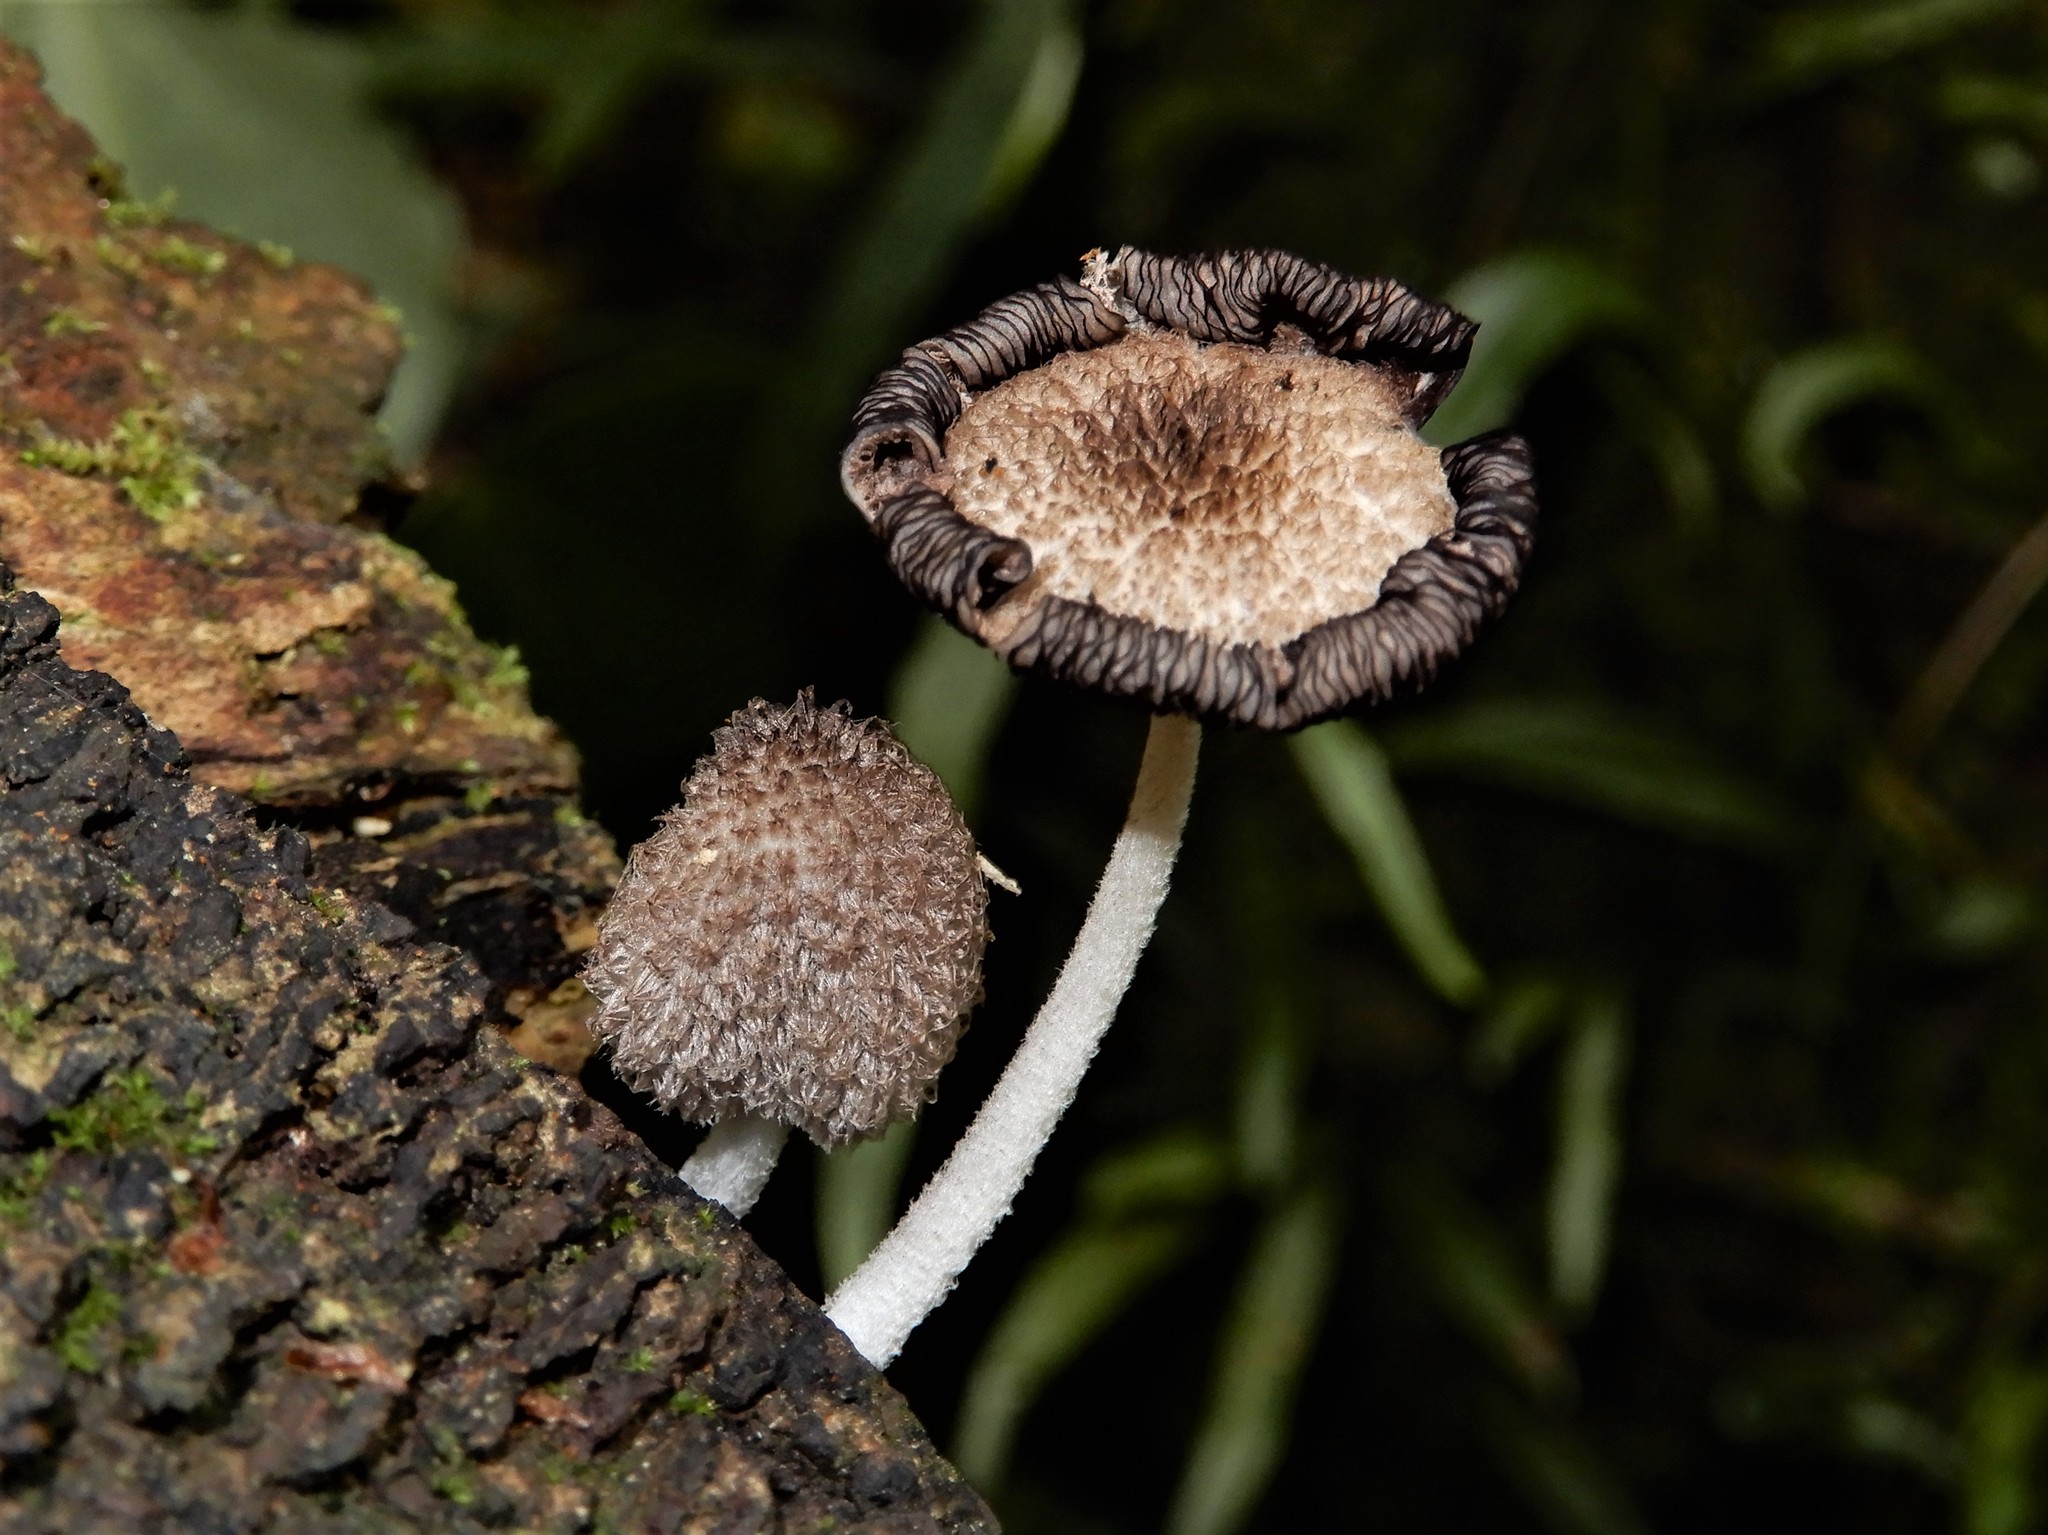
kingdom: Fungi
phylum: Basidiomycota
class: Agaricomycetes
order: Agaricales
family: Psathyrellaceae
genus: Coprinopsis
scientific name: Coprinopsis
